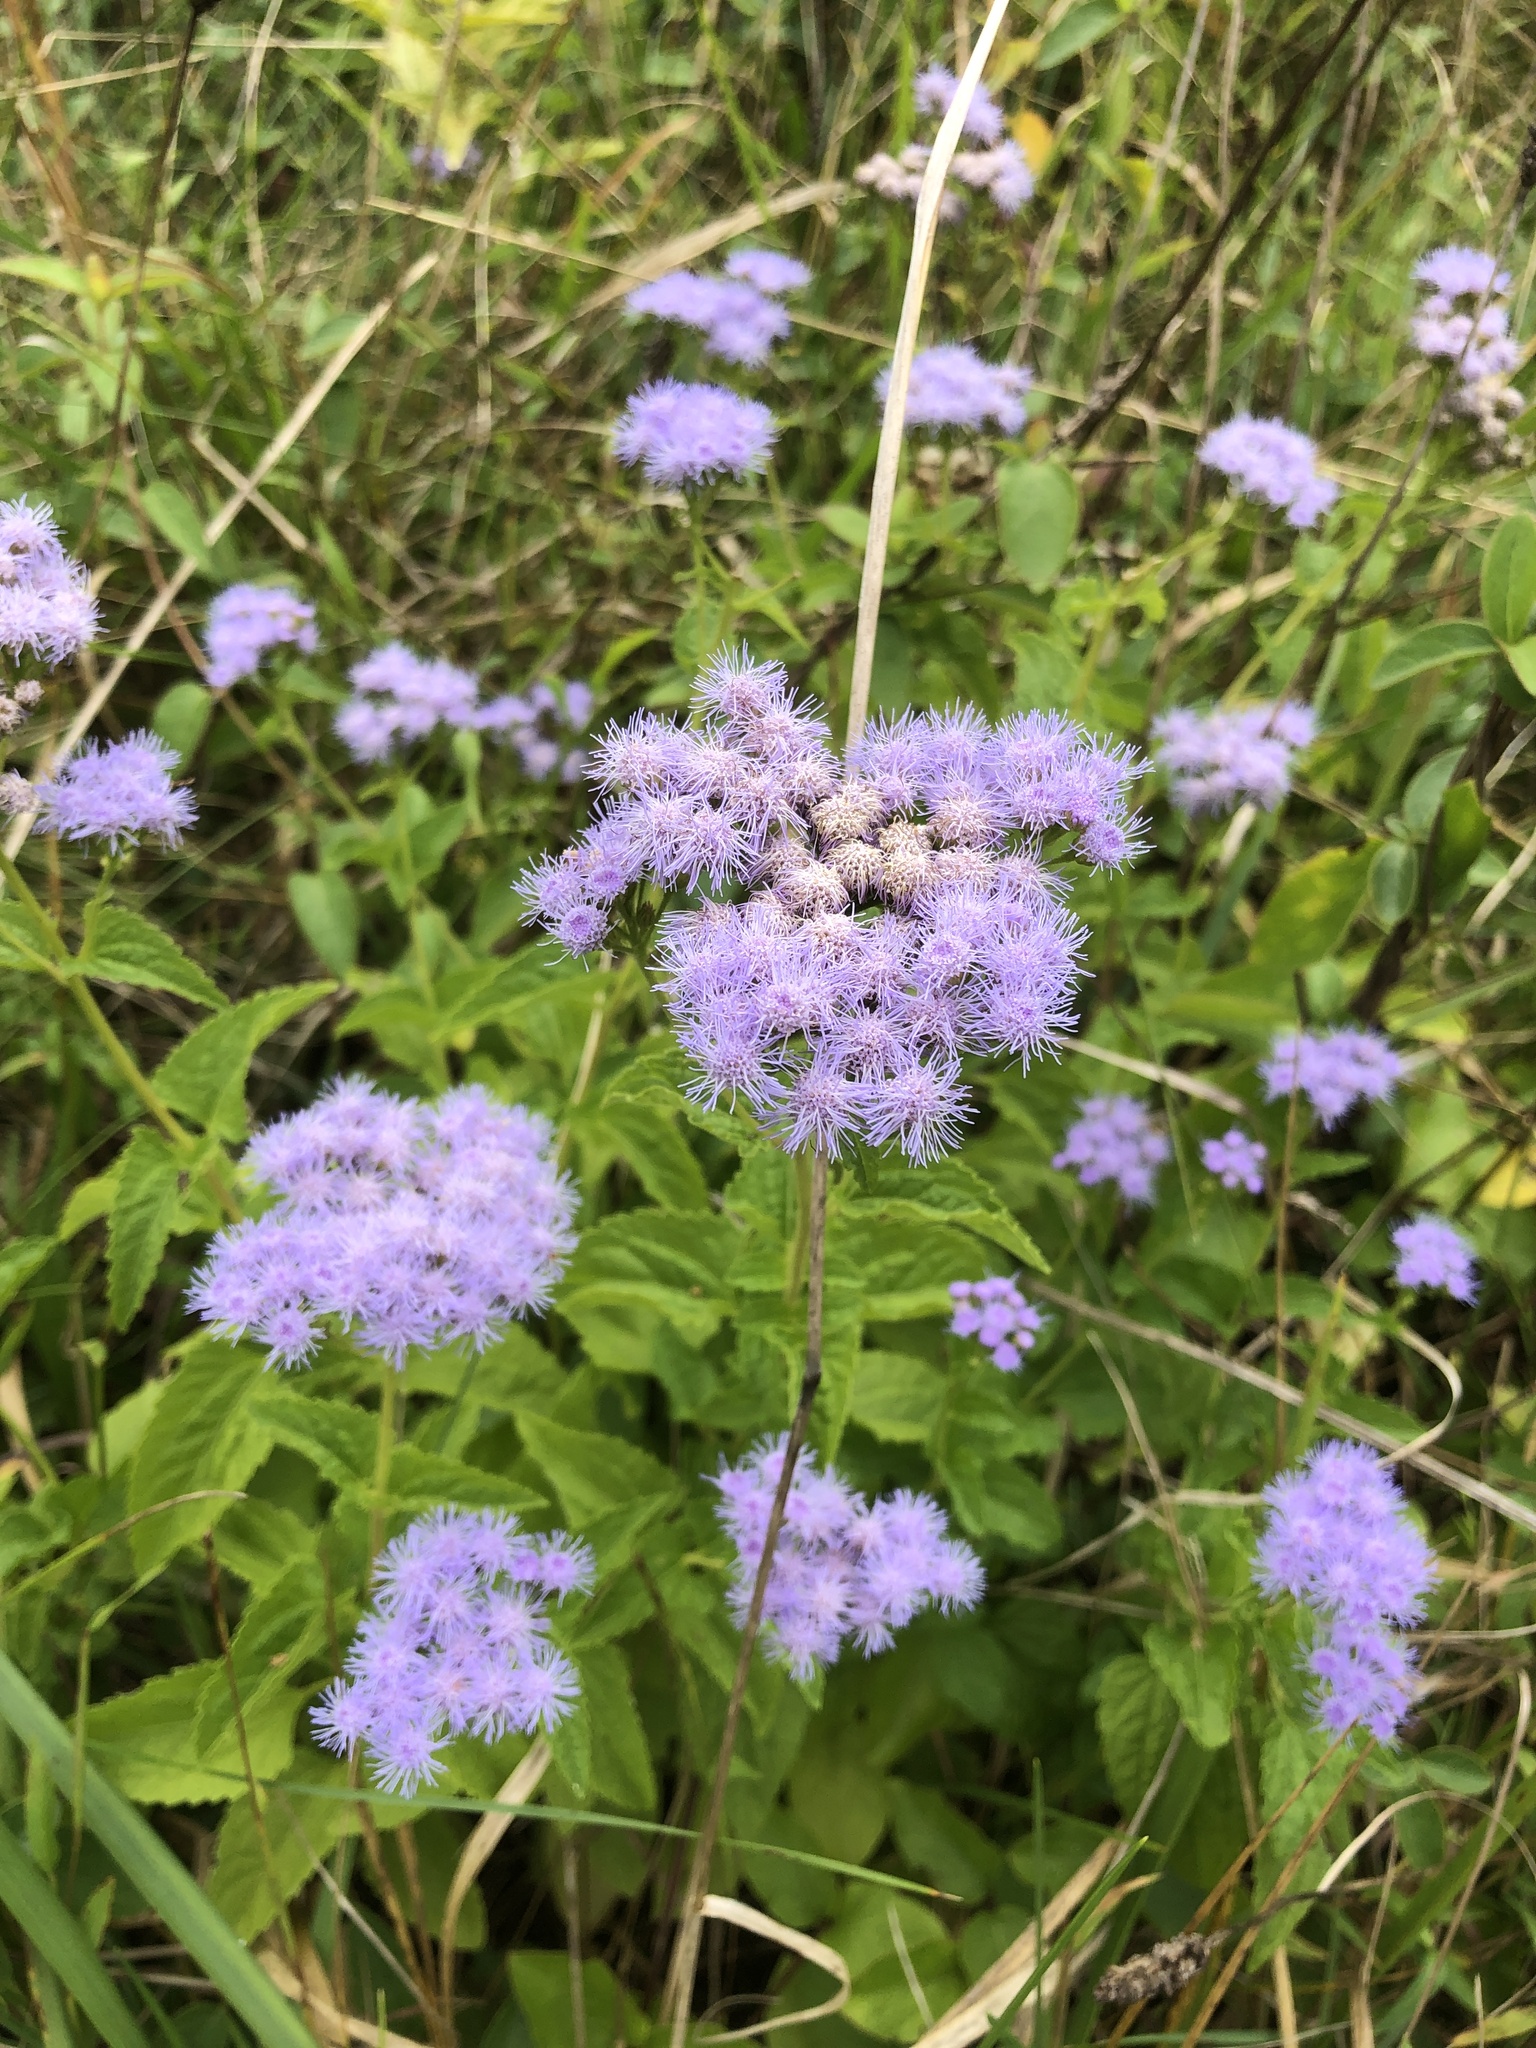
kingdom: Plantae
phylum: Tracheophyta
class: Magnoliopsida
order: Asterales
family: Asteraceae
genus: Conoclinium
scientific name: Conoclinium coelestinum
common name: Blue mistflower
